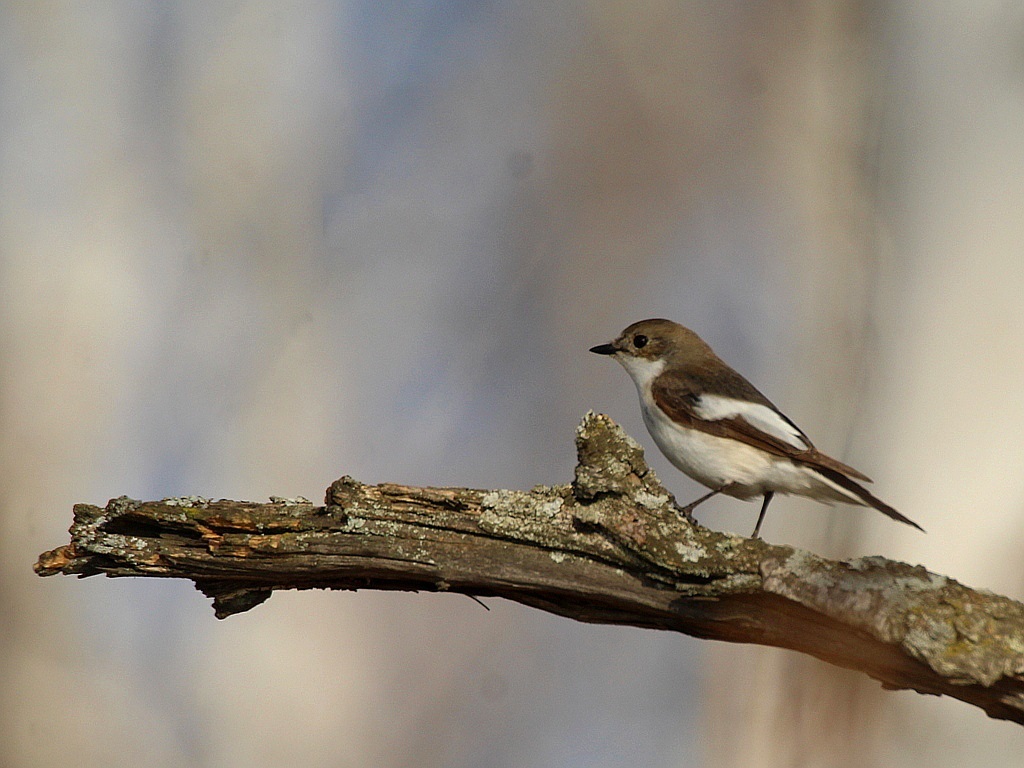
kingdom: Animalia
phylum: Chordata
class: Aves
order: Passeriformes
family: Muscicapidae
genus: Ficedula
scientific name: Ficedula hypoleuca
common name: European pied flycatcher
